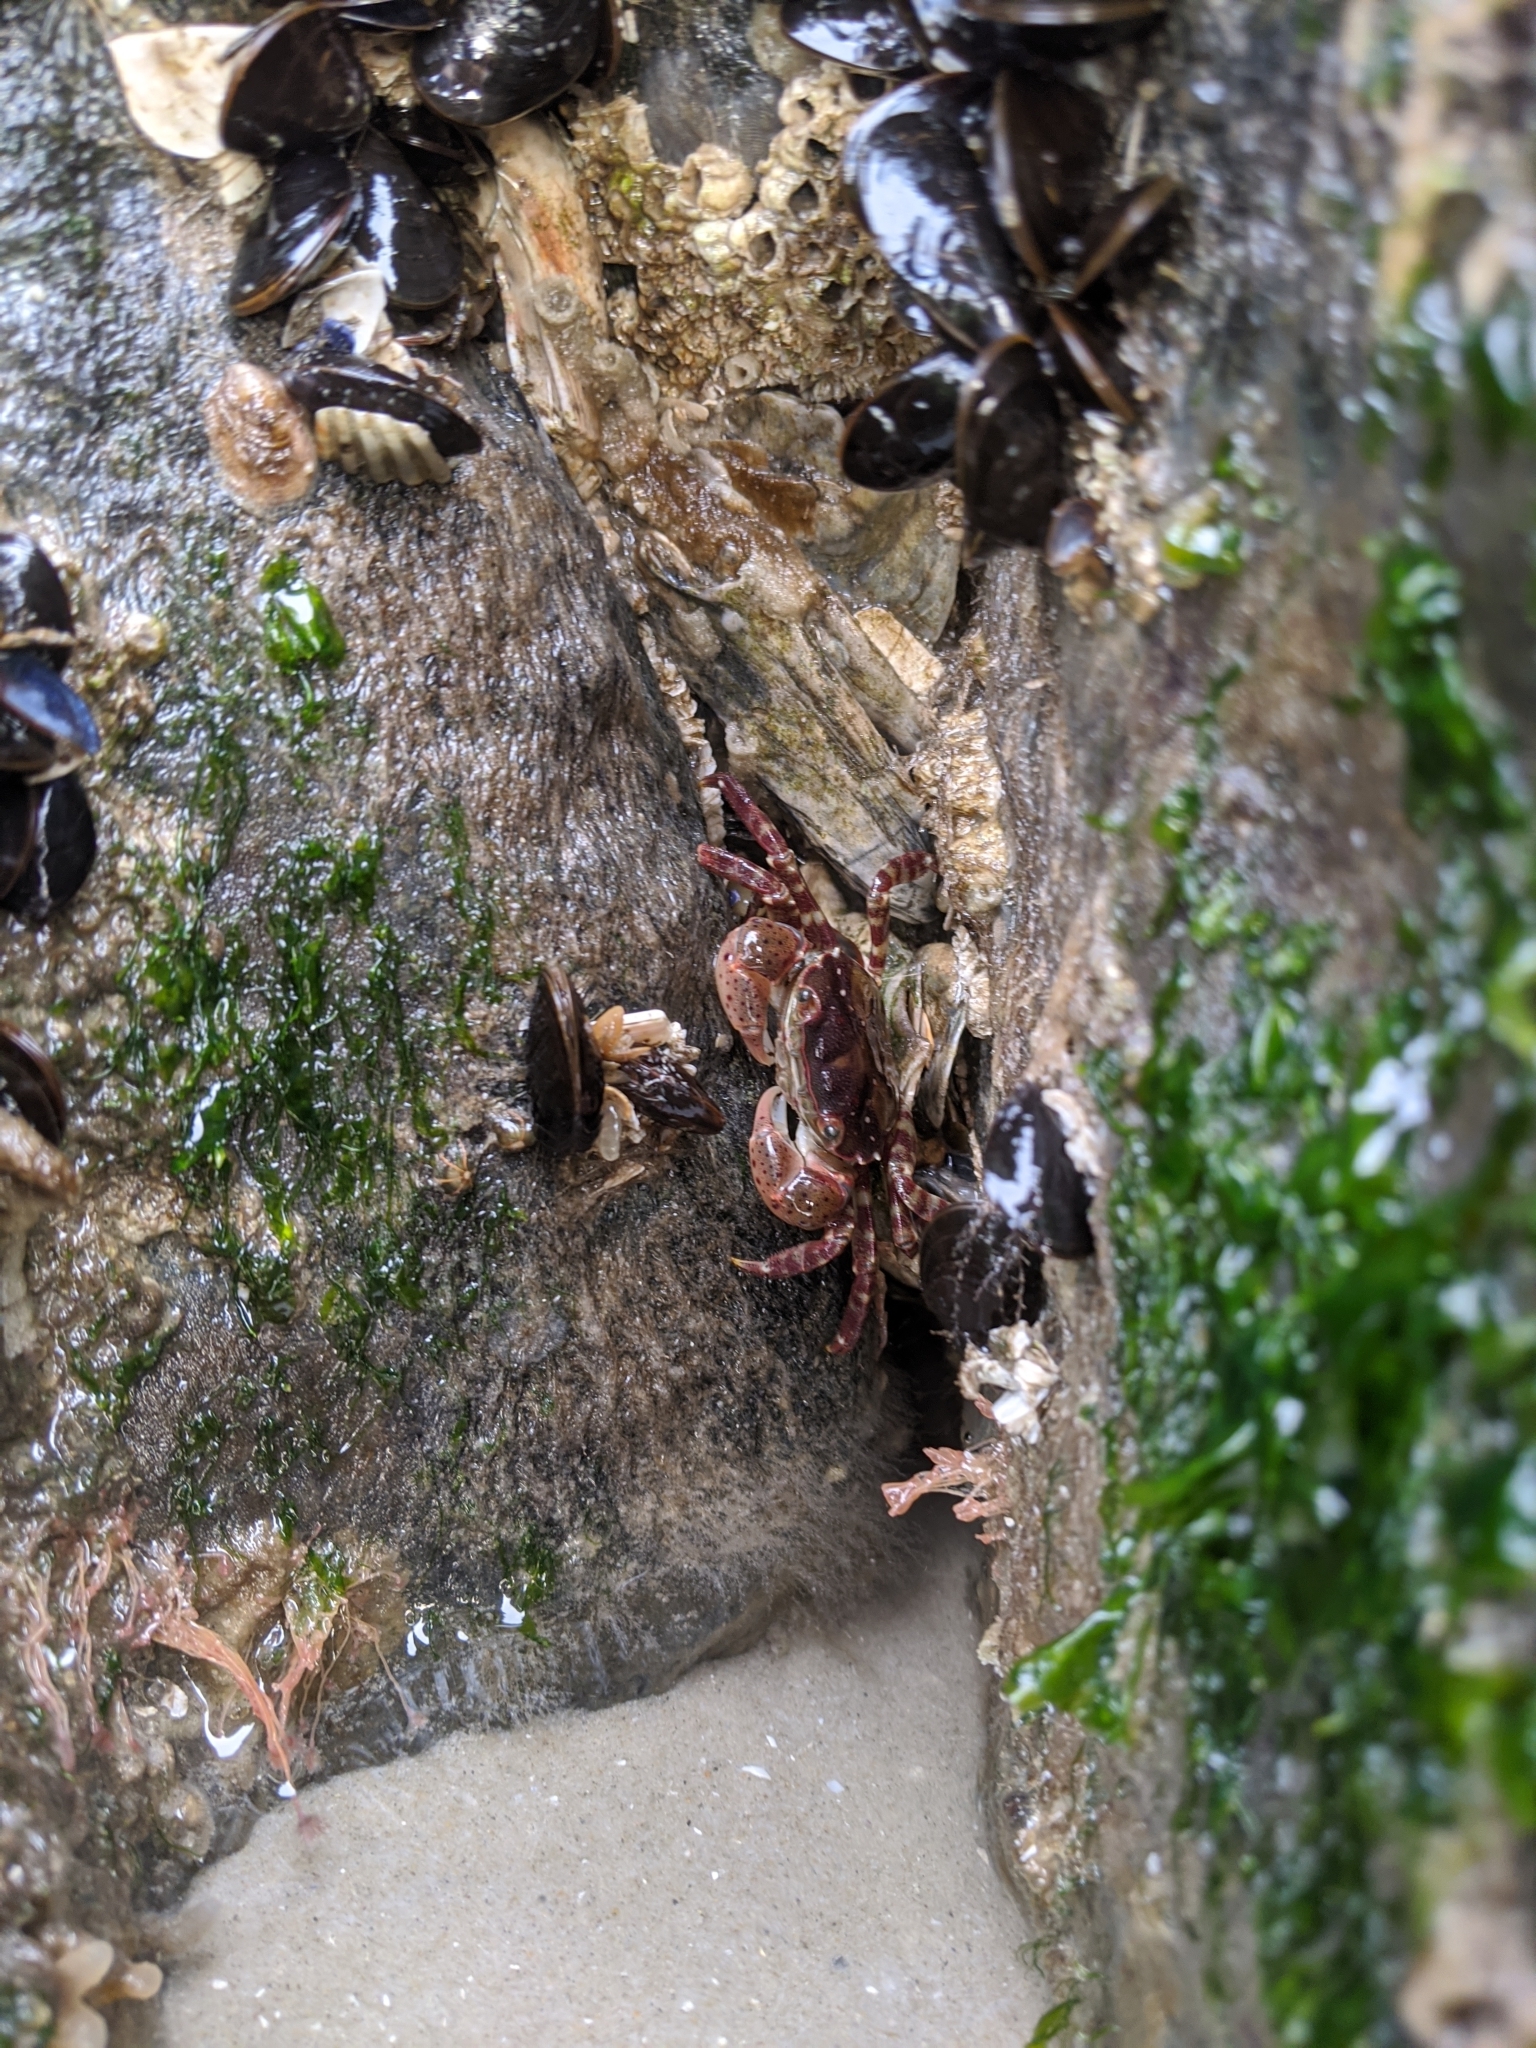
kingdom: Animalia
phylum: Arthropoda
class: Malacostraca
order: Decapoda
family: Varunidae
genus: Hemigrapsus
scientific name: Hemigrapsus sanguineus
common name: Asian shore crab
